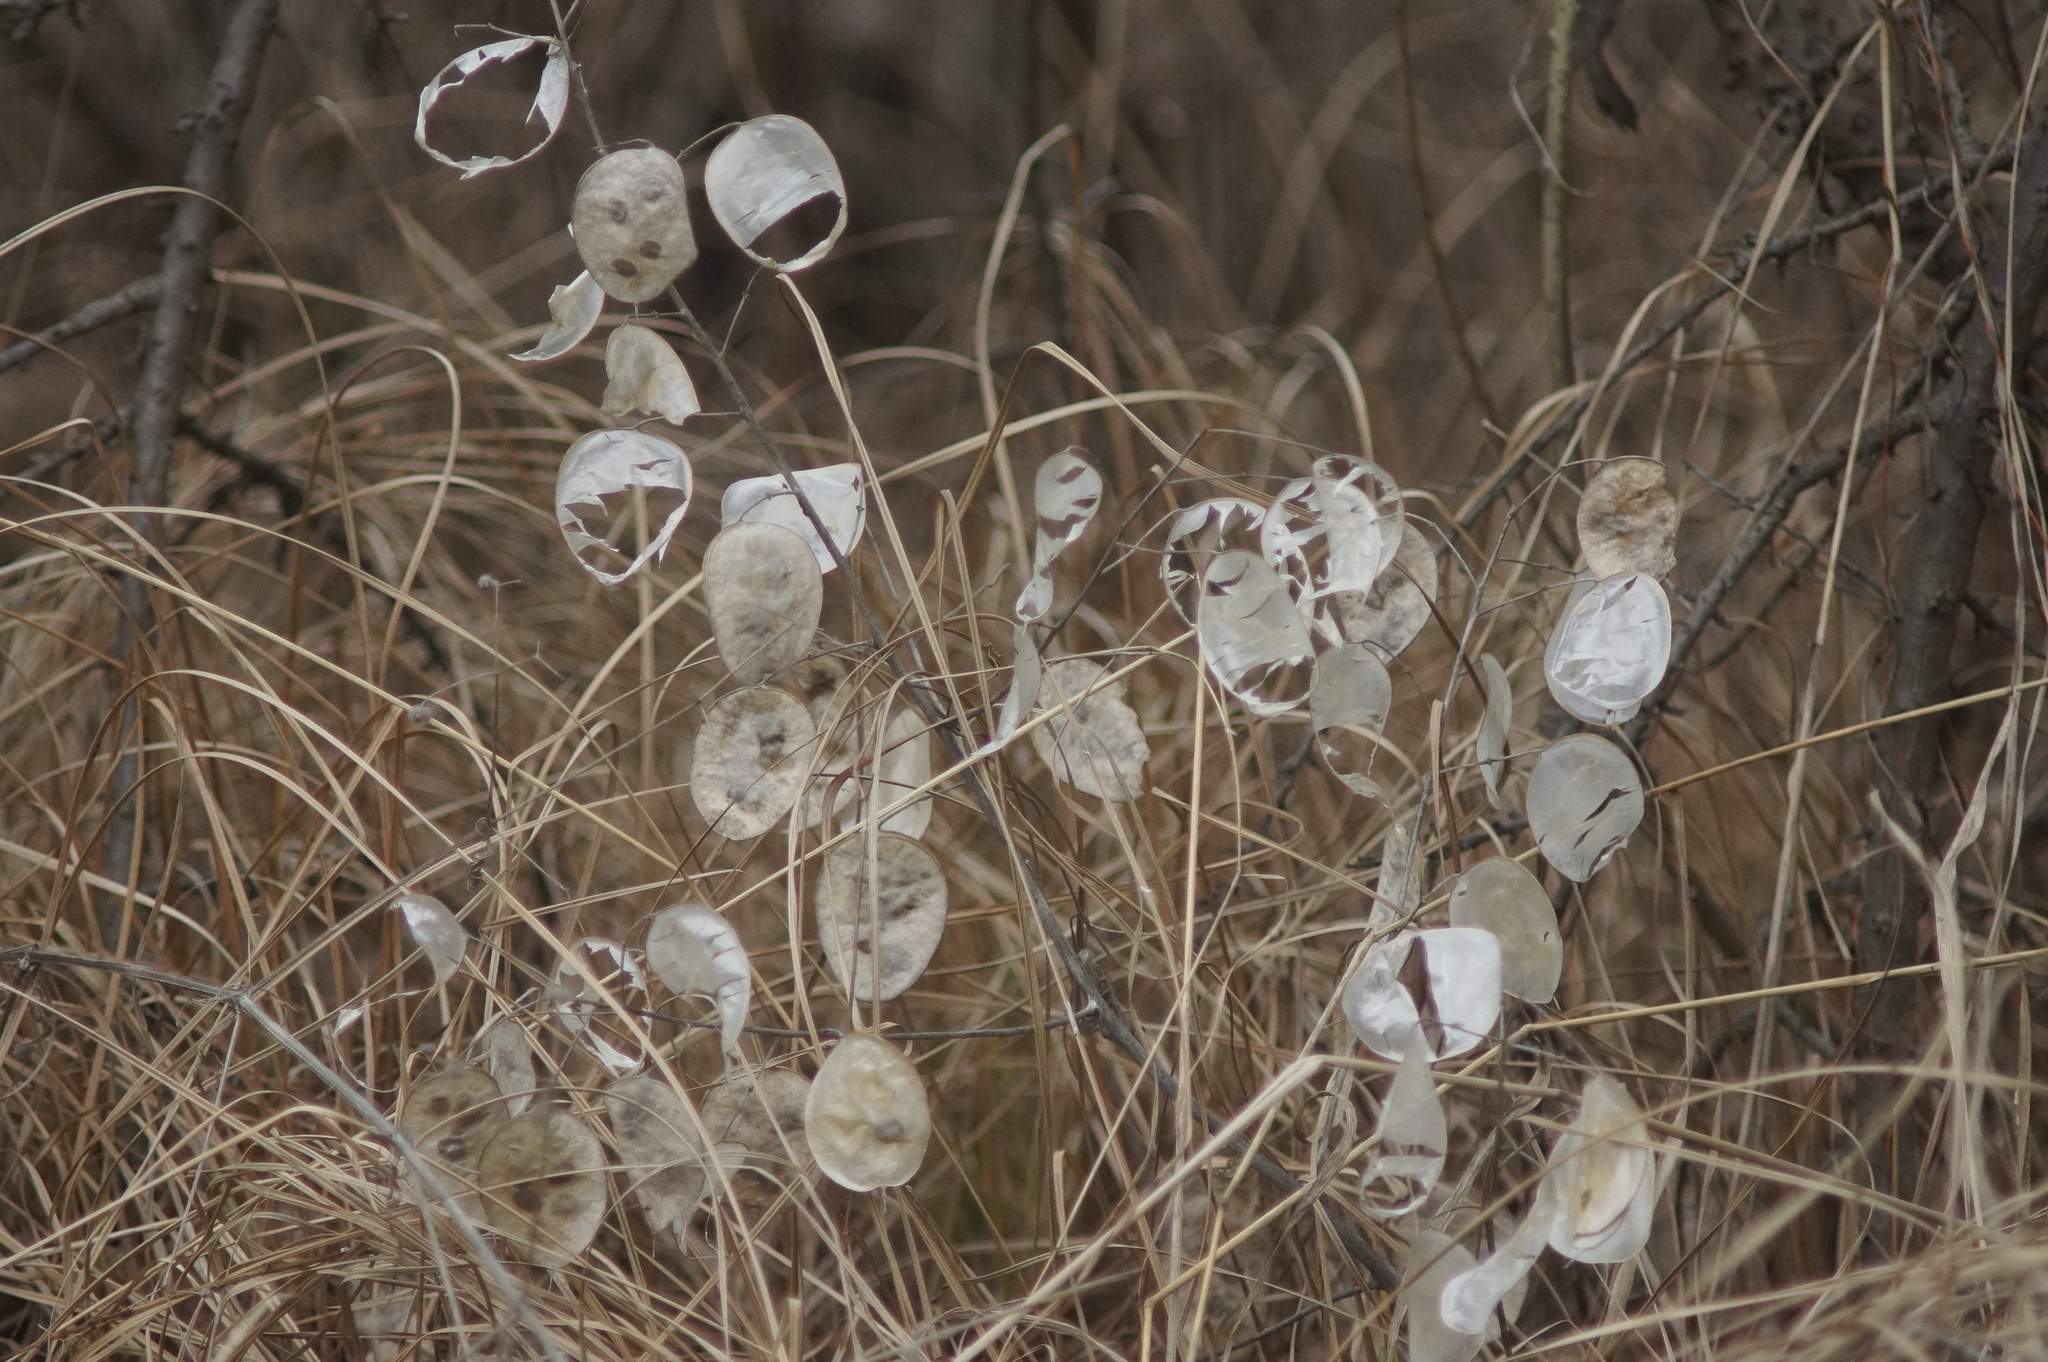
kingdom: Plantae
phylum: Tracheophyta
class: Magnoliopsida
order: Brassicales
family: Brassicaceae
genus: Lunaria
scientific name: Lunaria annua
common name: Honesty
